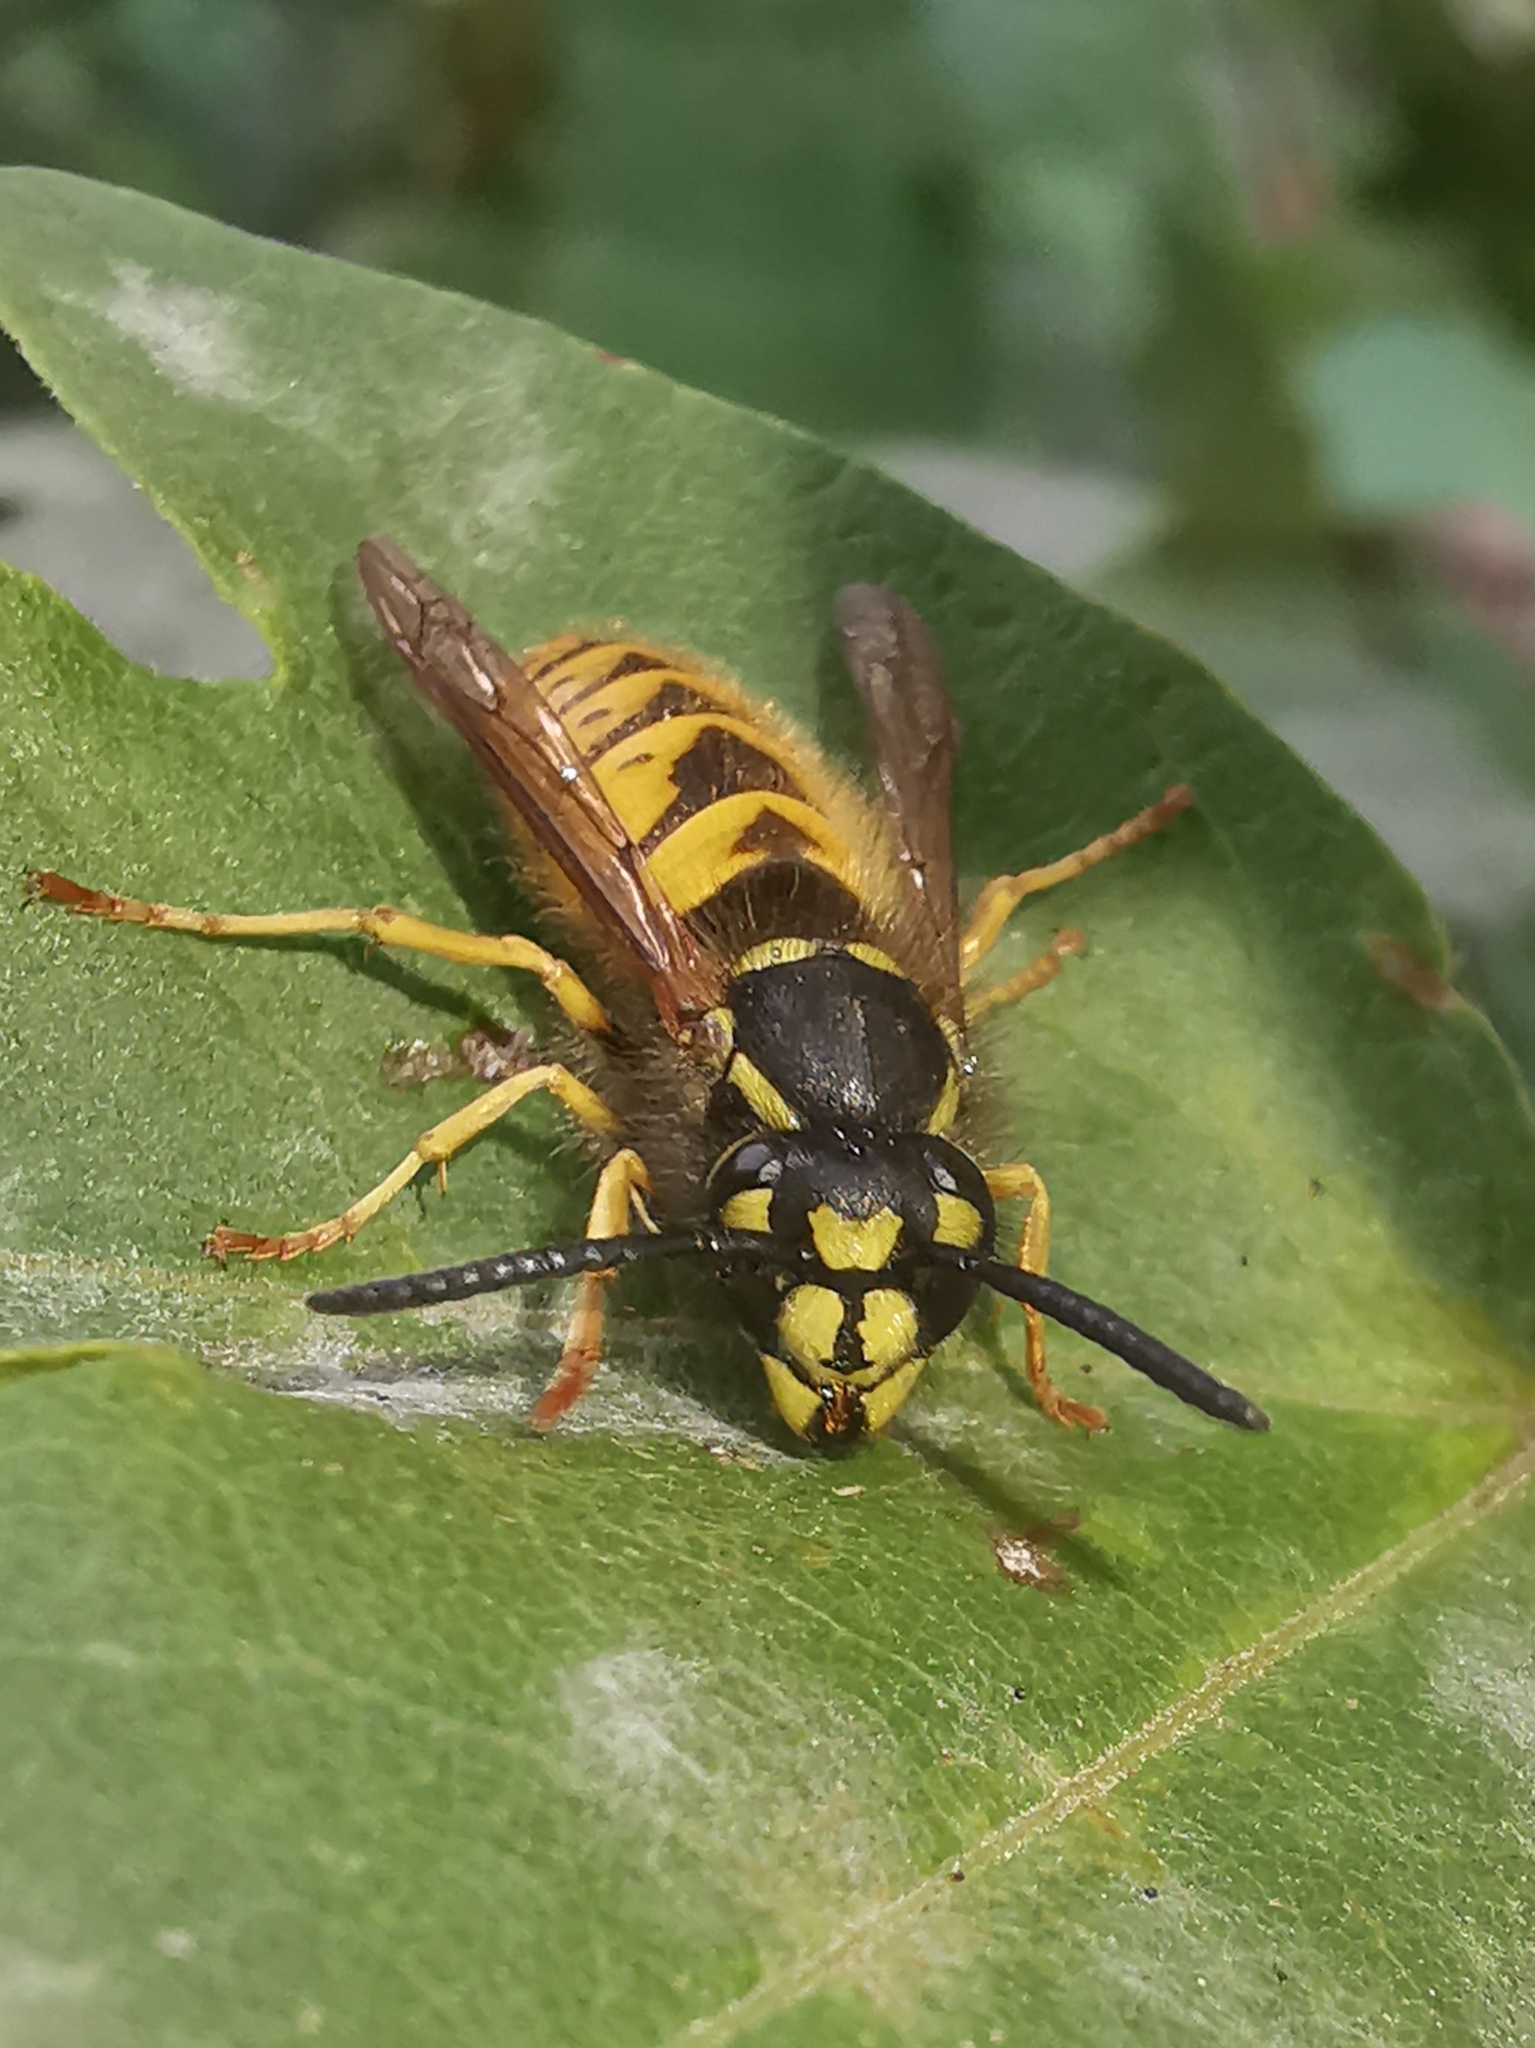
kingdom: Animalia
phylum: Arthropoda
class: Insecta
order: Hymenoptera
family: Vespidae
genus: Vespula
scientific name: Vespula vulgaris
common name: Common wasp
